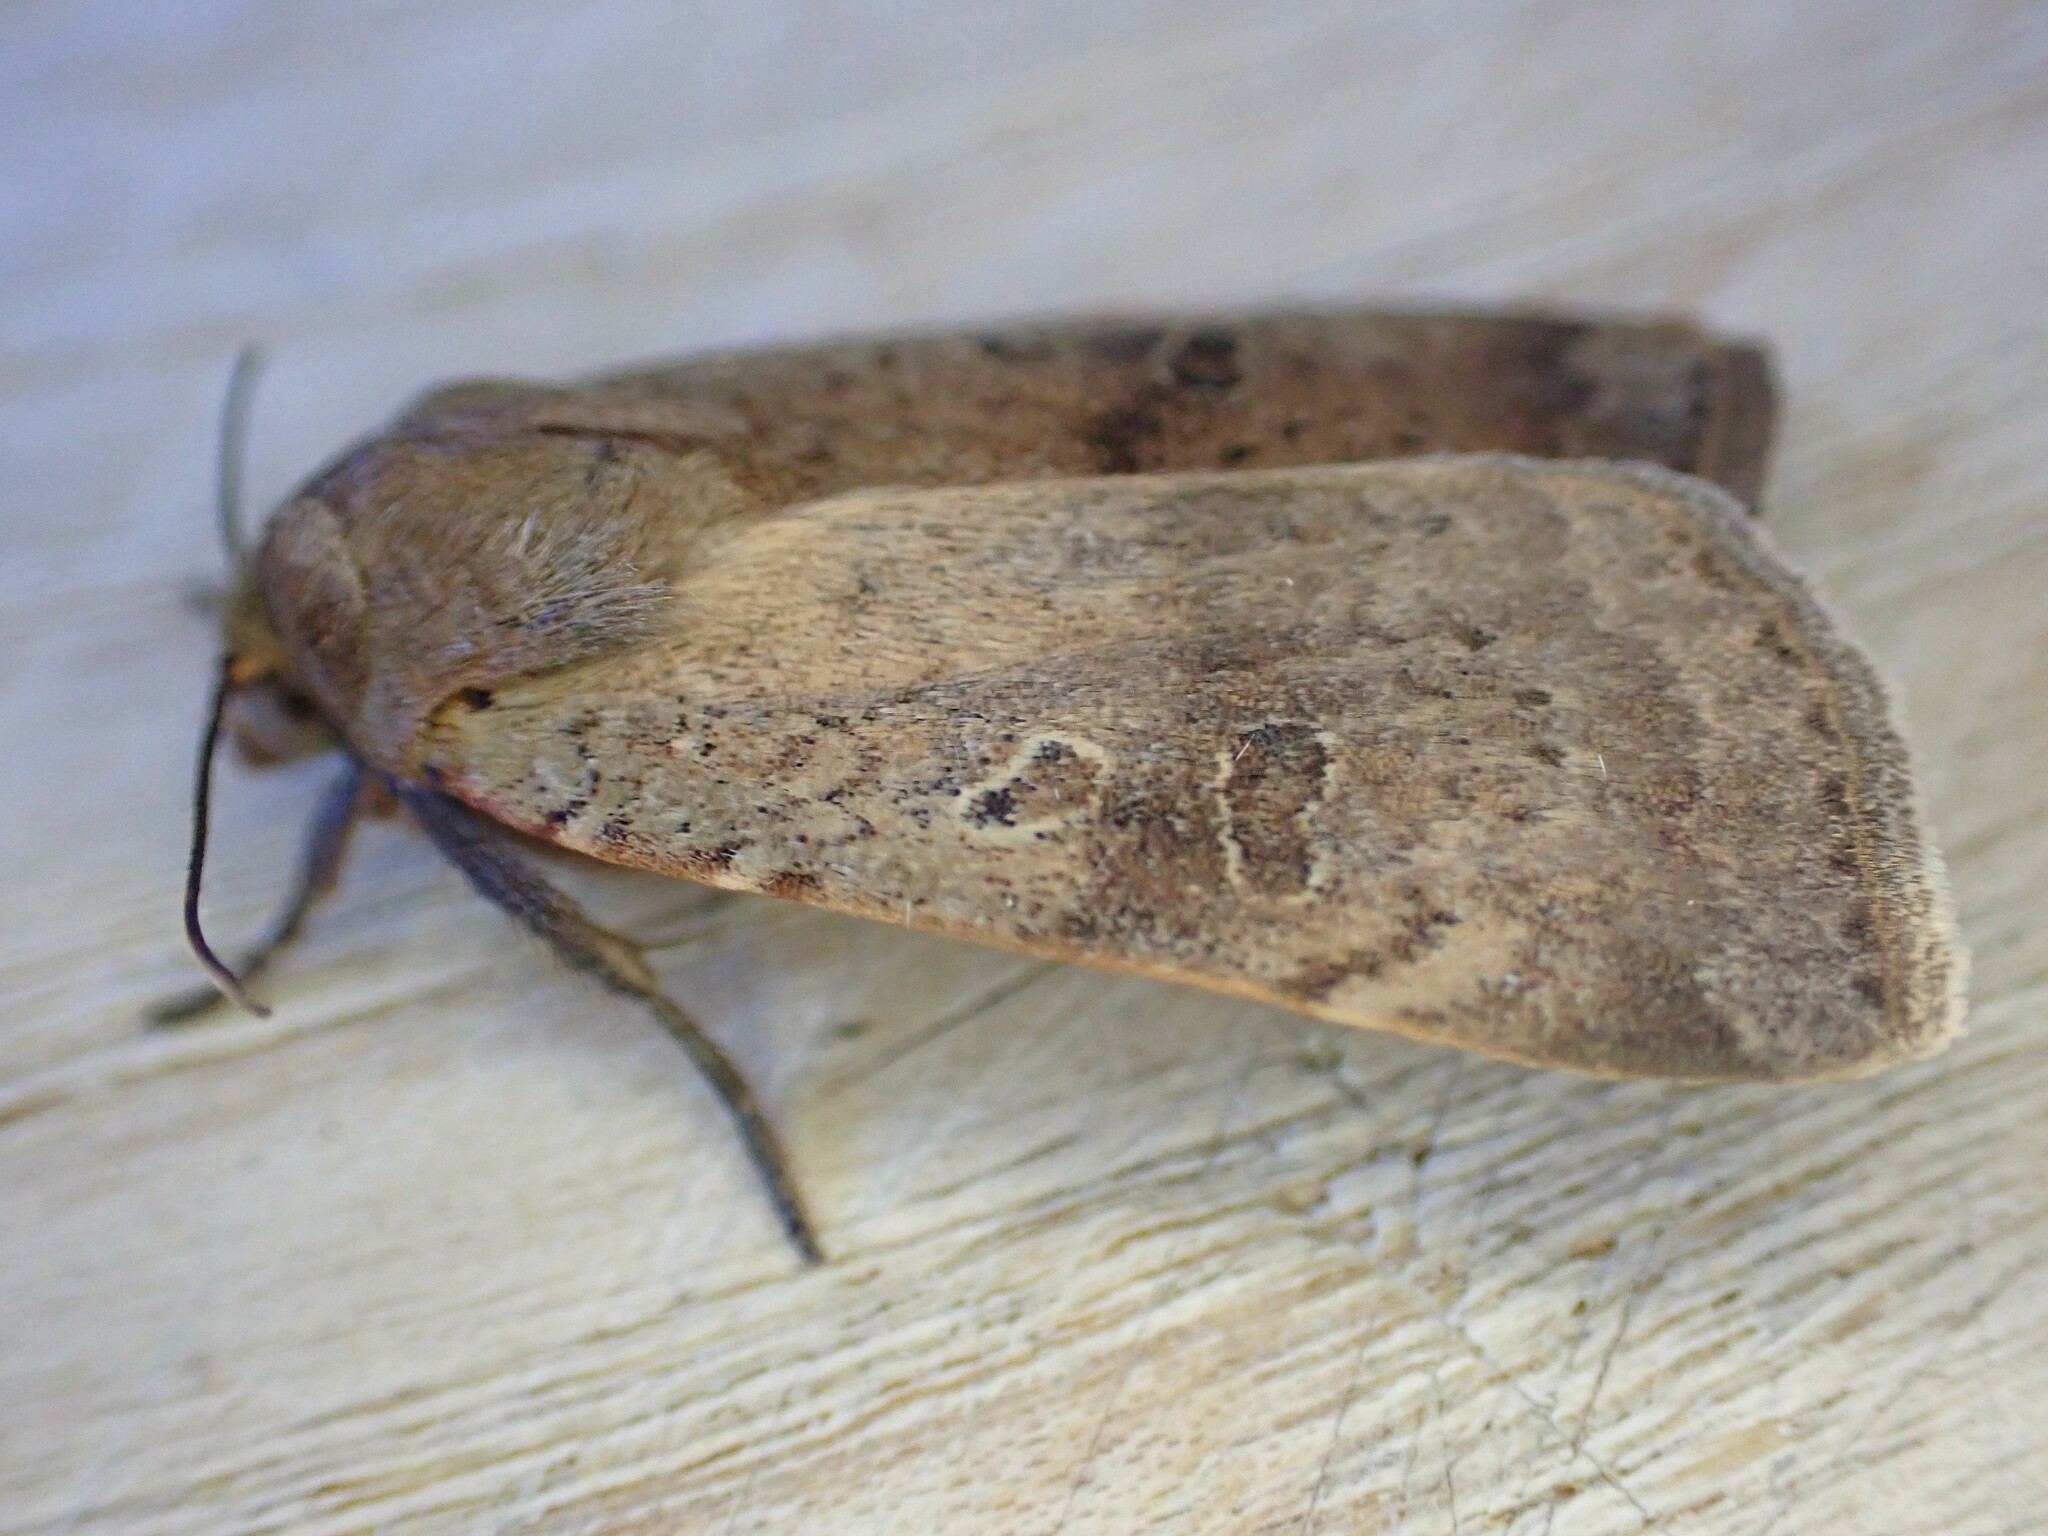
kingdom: Animalia
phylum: Arthropoda
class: Insecta
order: Lepidoptera
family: Noctuidae
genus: Noctua
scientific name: Noctua comes
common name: Lesser yellow underwing
